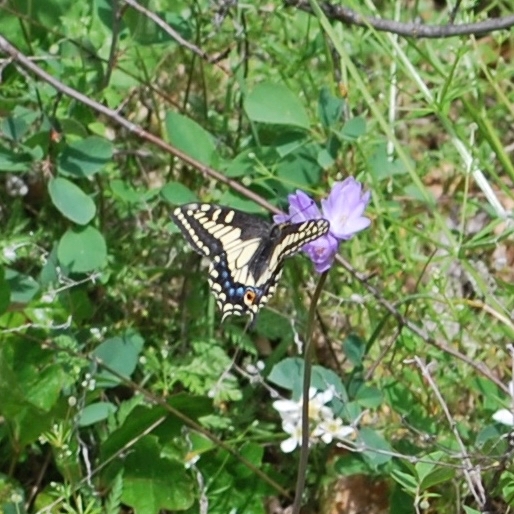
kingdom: Animalia
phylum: Arthropoda
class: Insecta
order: Lepidoptera
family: Papilionidae
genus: Papilio
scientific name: Papilio zelicaon
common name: Anise swallowtail
